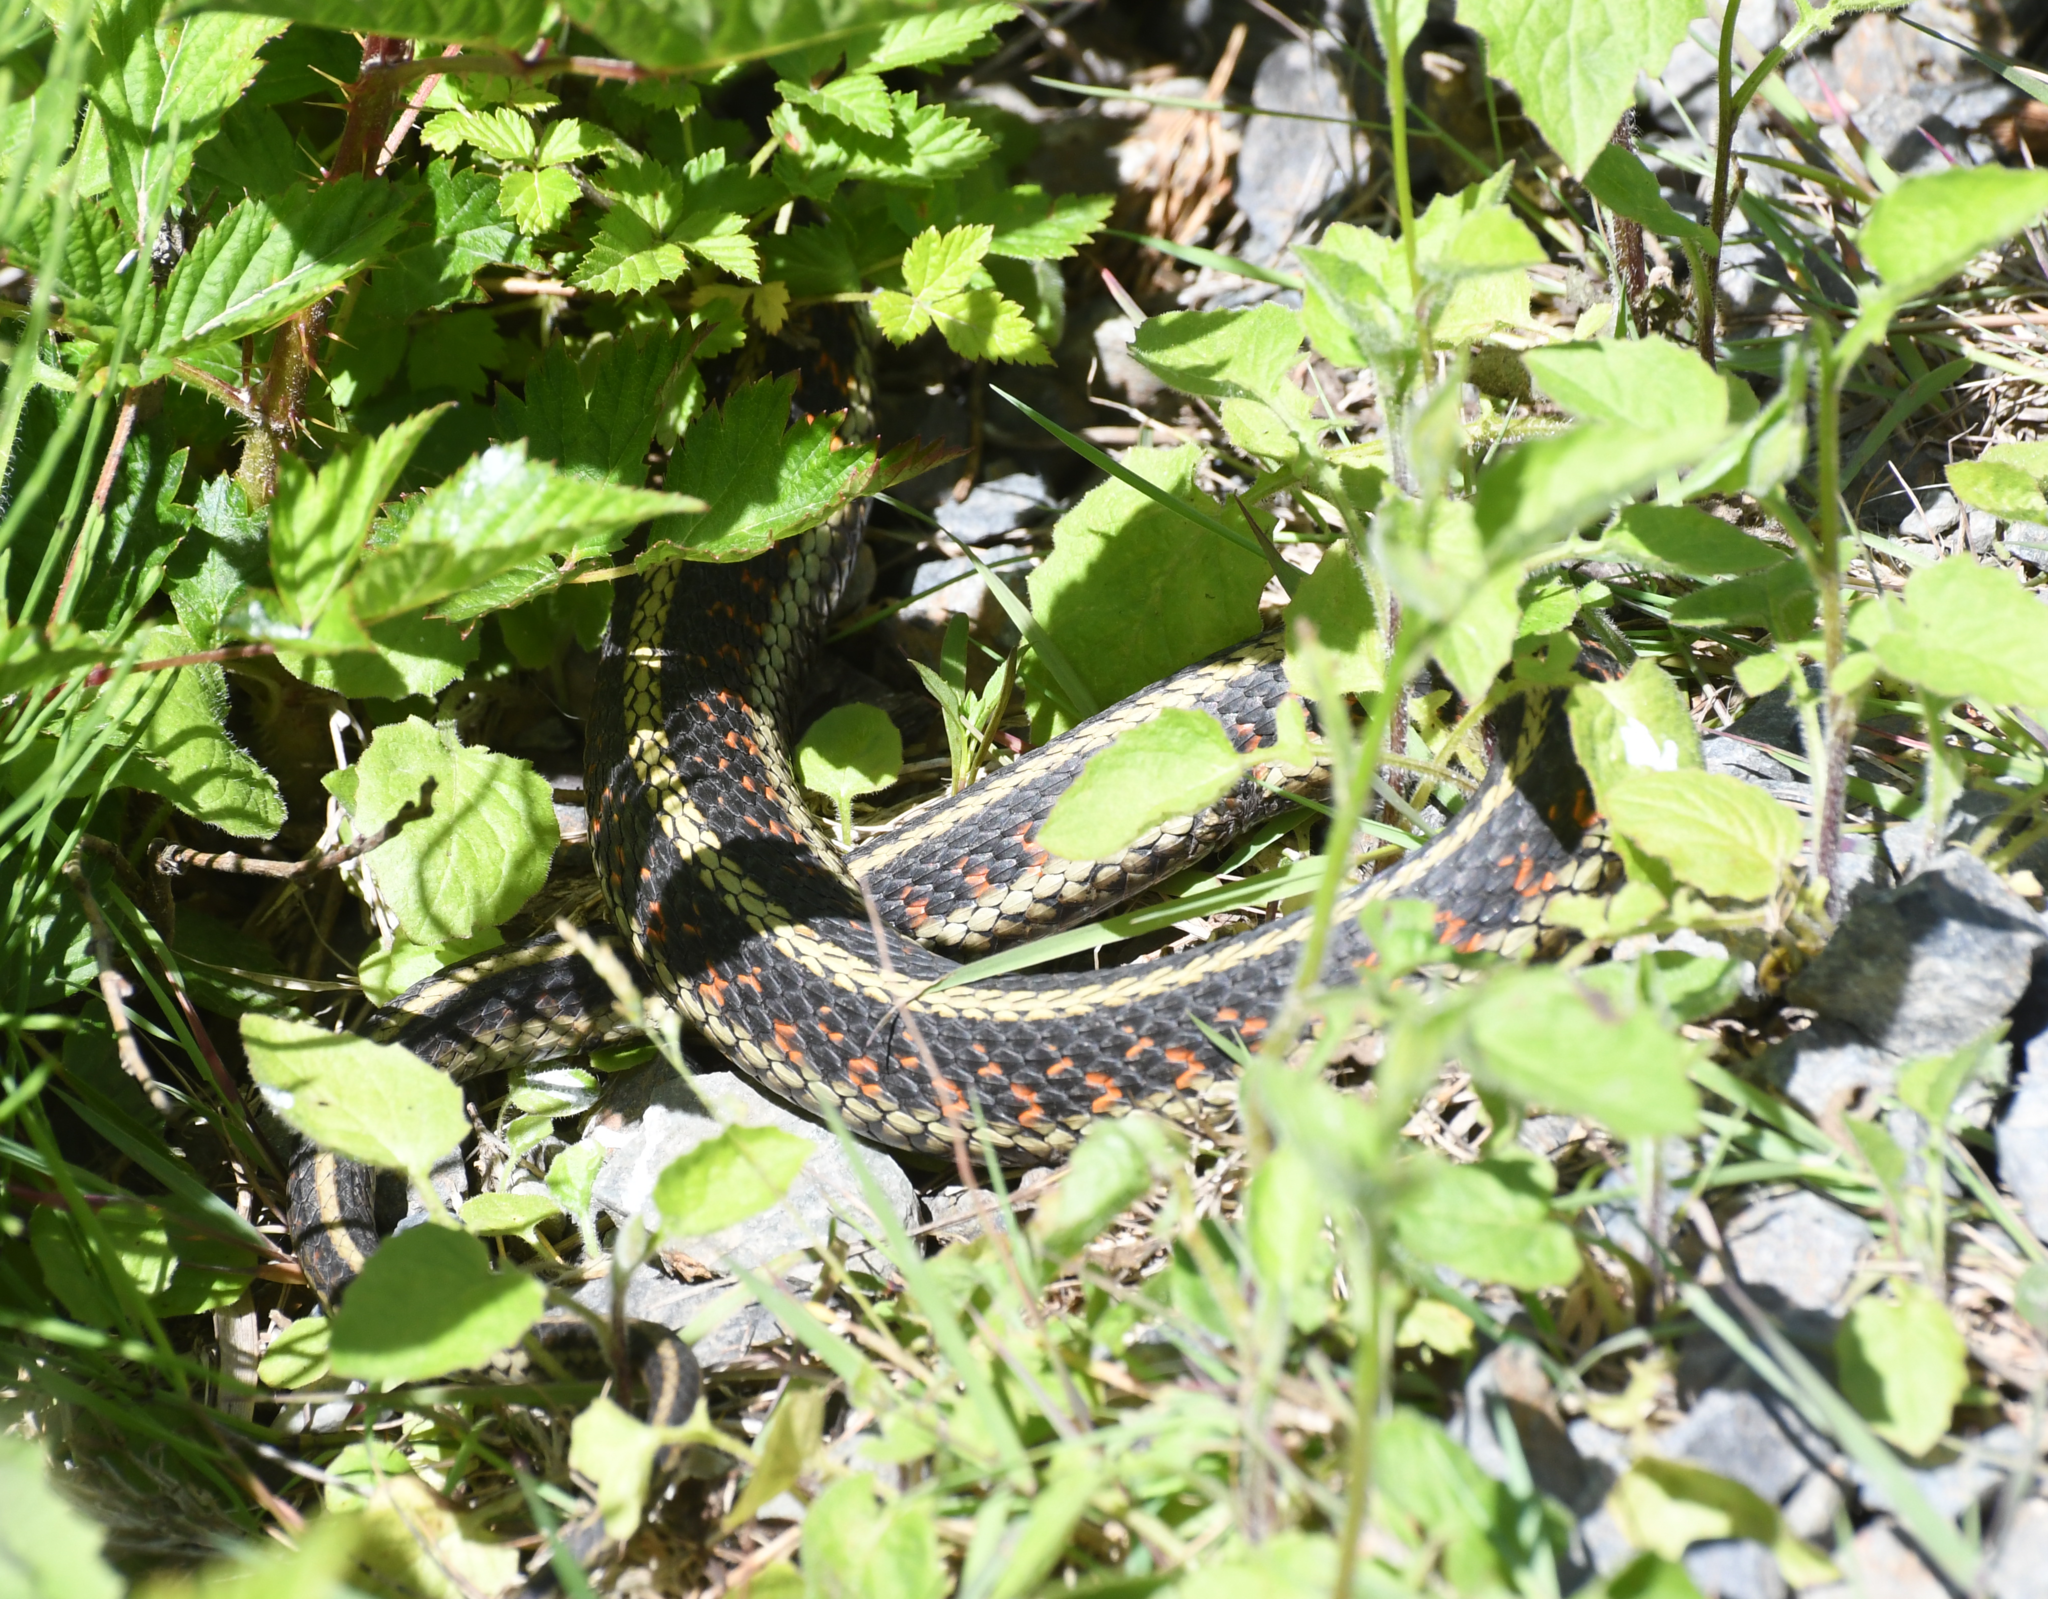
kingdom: Animalia
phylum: Chordata
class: Squamata
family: Colubridae
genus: Thamnophis
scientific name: Thamnophis sirtalis
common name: Common garter snake
